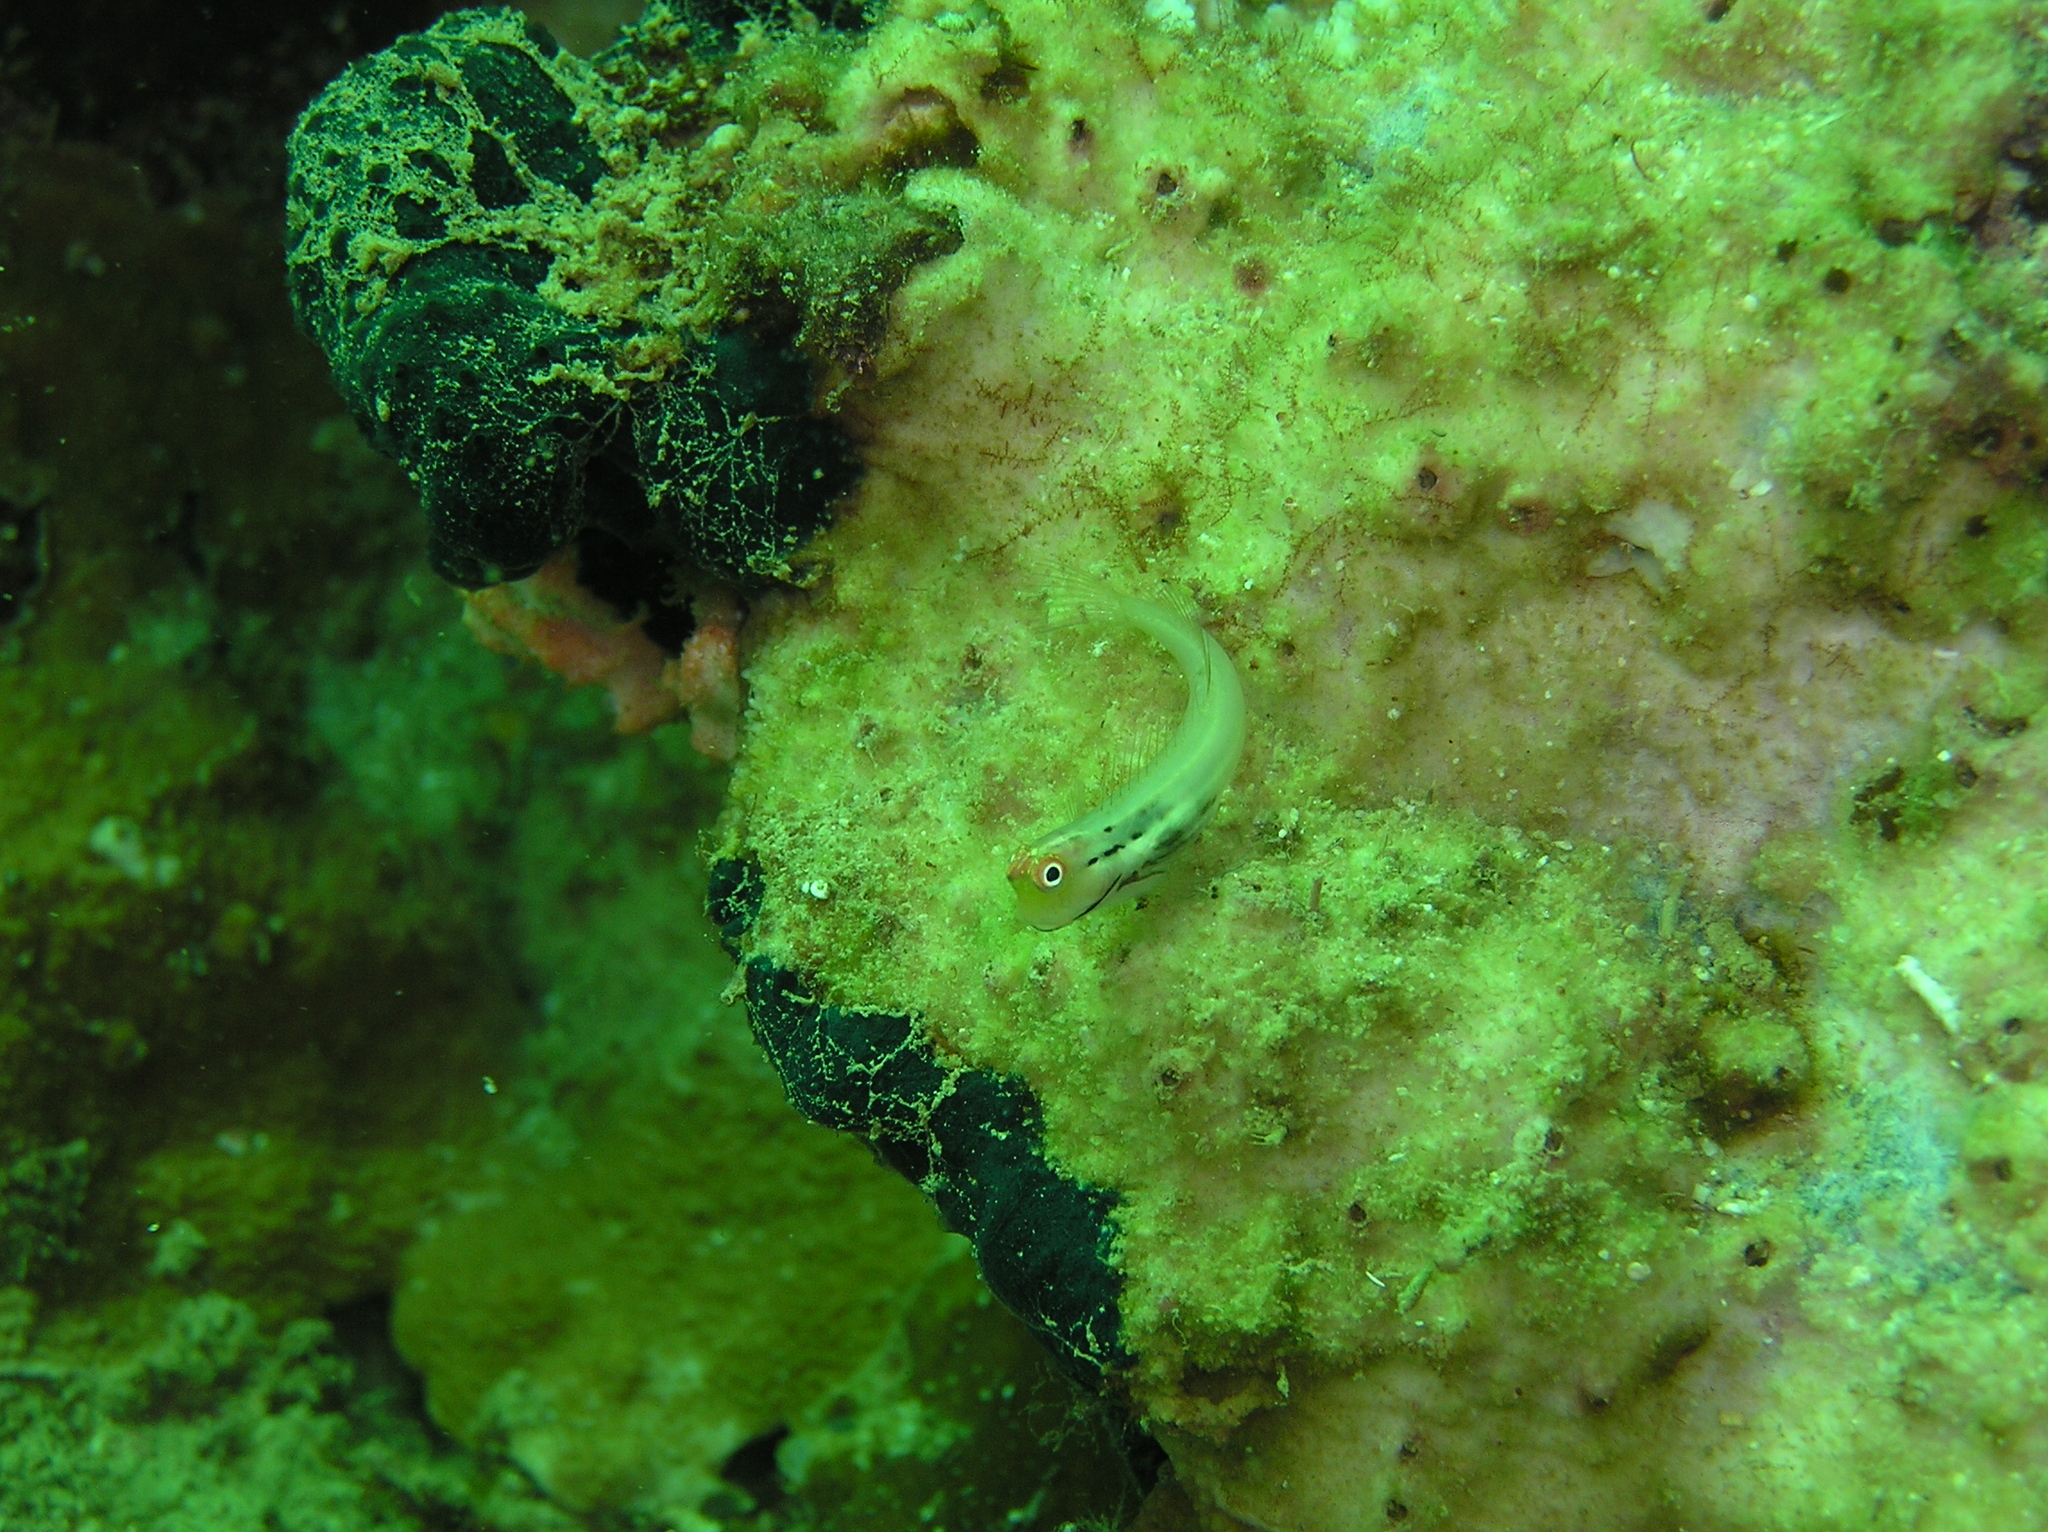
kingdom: Animalia
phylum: Chordata
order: Perciformes
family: Blenniidae
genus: Ecsenius
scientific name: Ecsenius yaeyamaensis
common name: Pale-spotted combtooth-blenny
